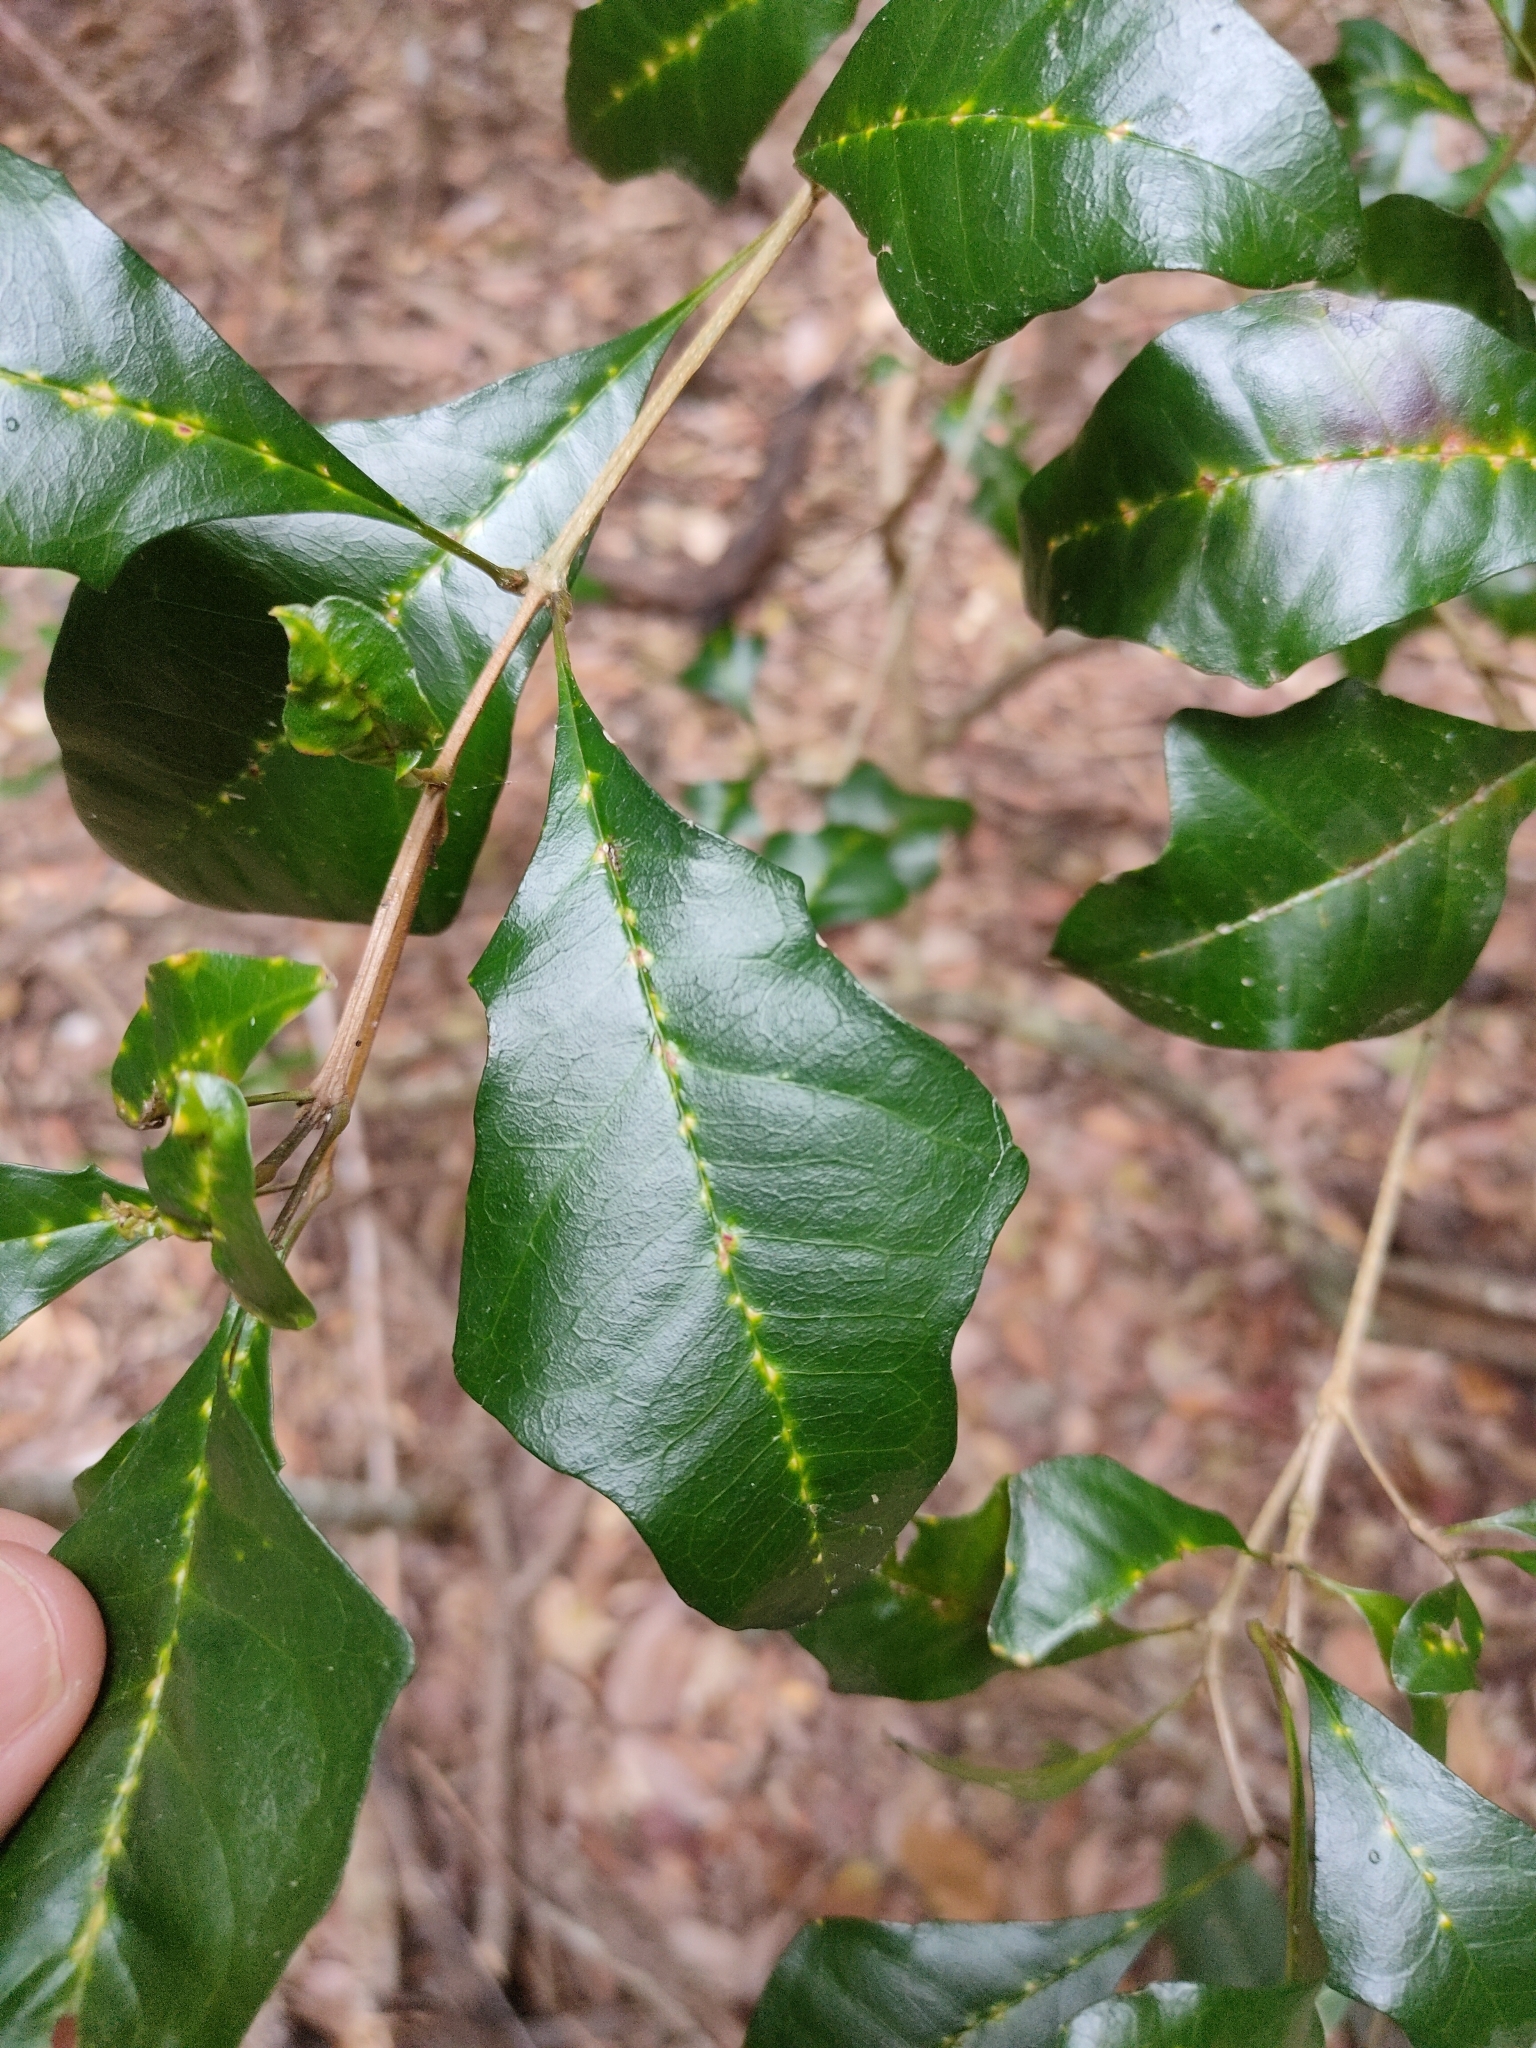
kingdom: Plantae
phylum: Tracheophyta
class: Magnoliopsida
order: Lamiales
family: Lamiaceae
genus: Vitex
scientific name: Vitex lignum-vitae
